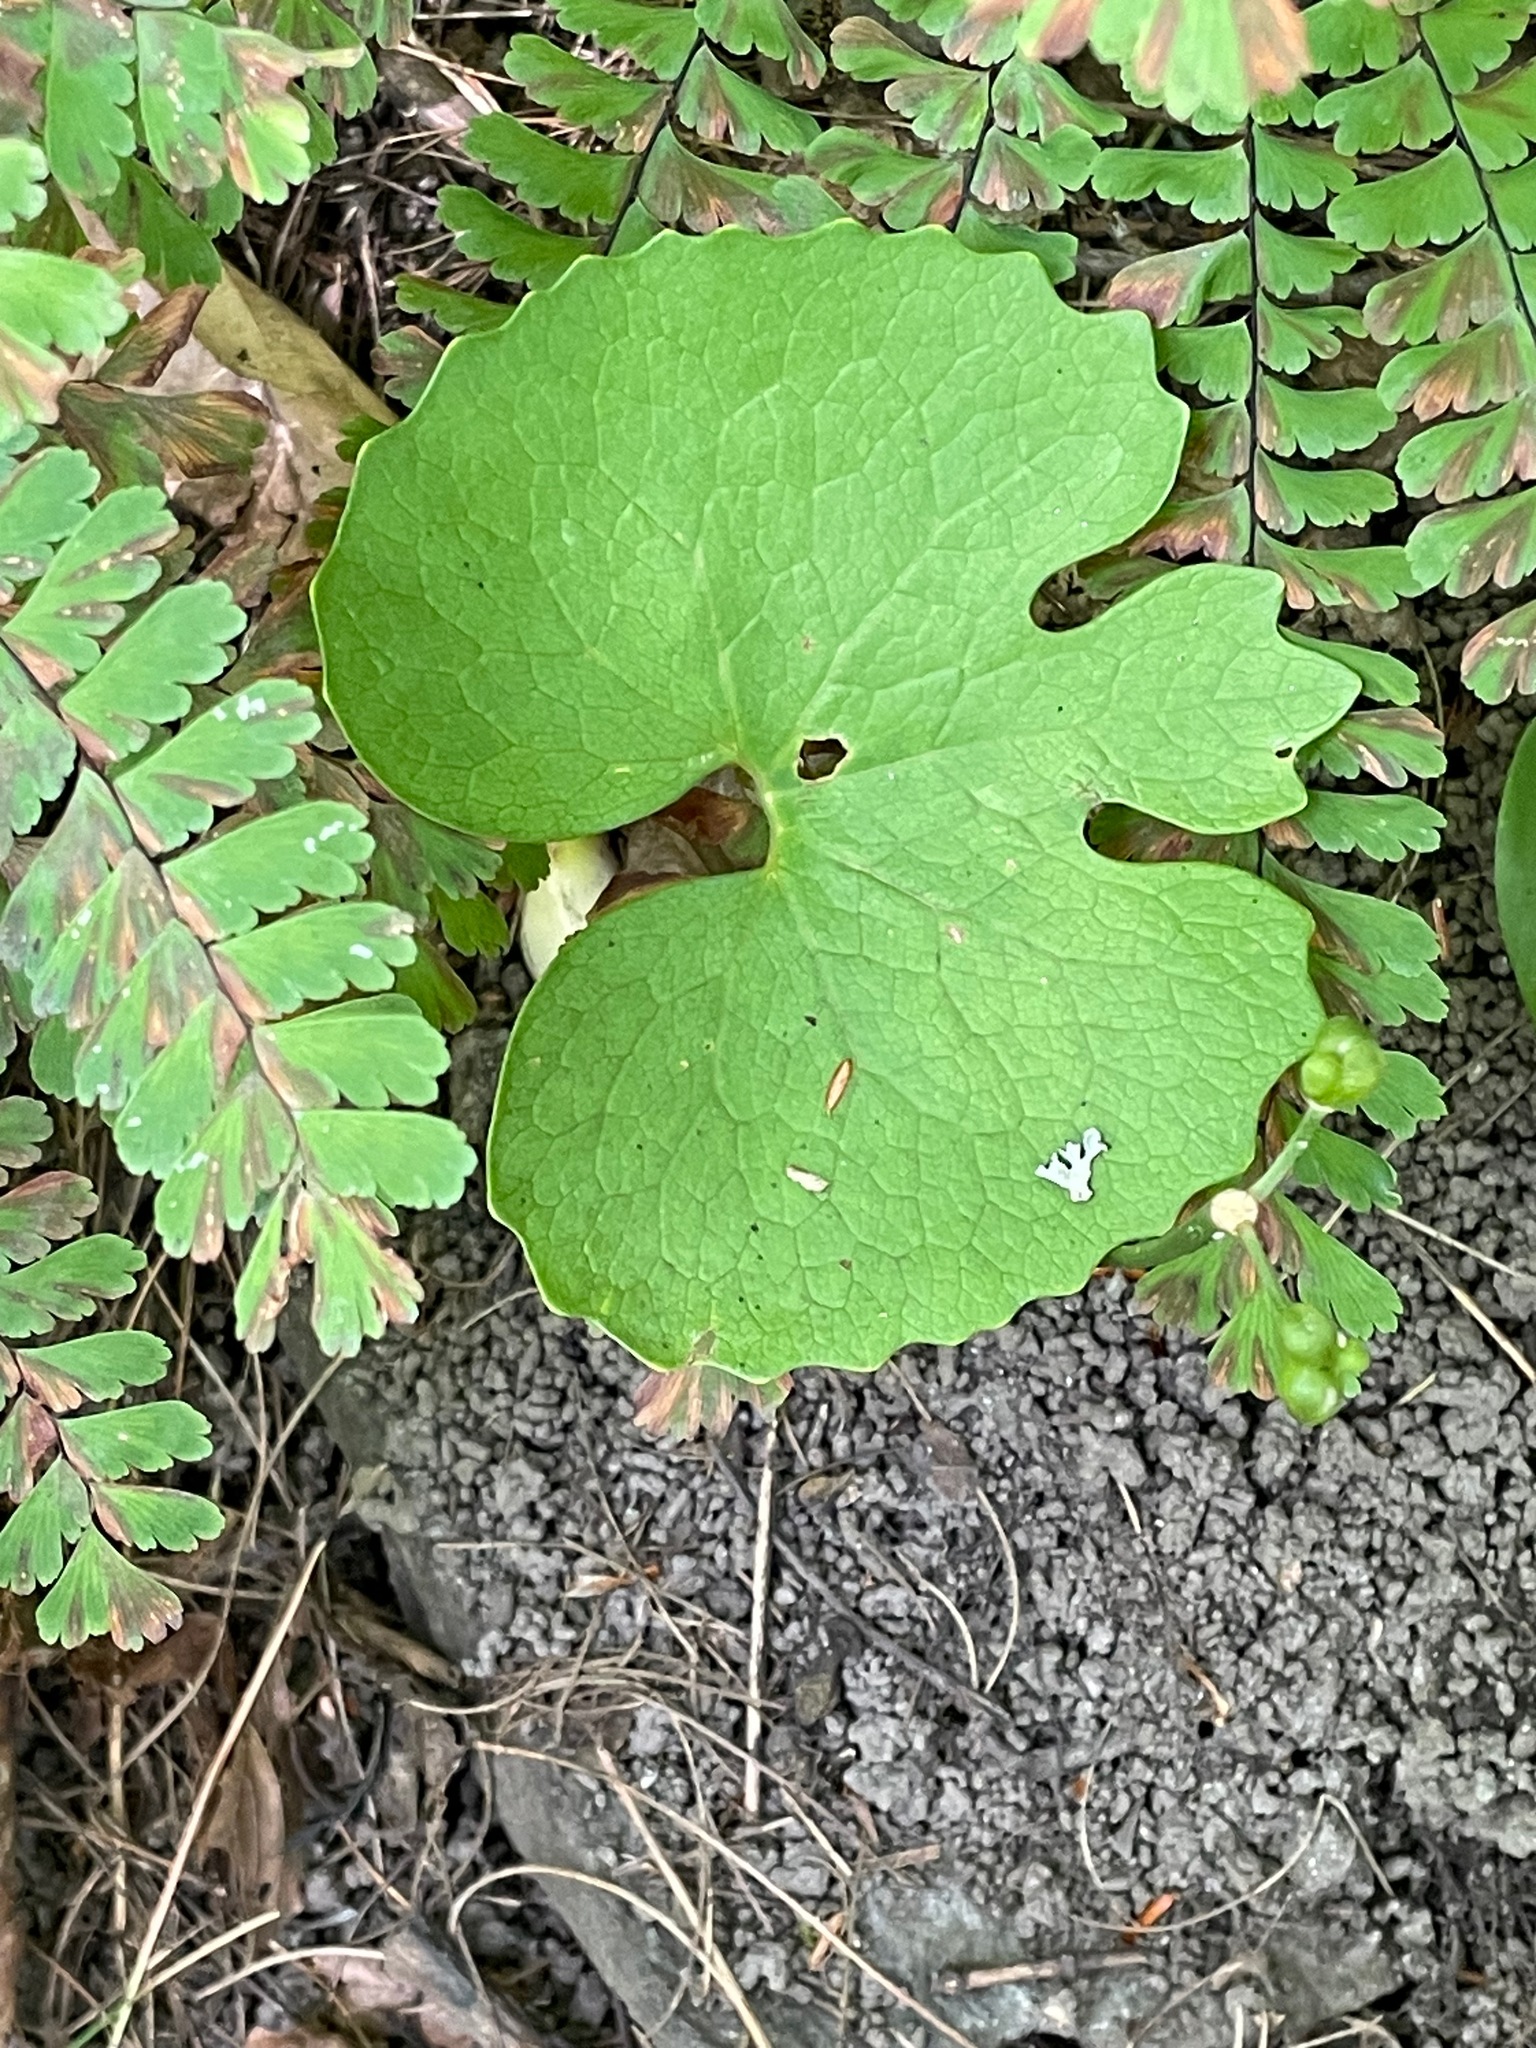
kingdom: Plantae
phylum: Tracheophyta
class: Magnoliopsida
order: Ranunculales
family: Papaveraceae
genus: Sanguinaria
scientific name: Sanguinaria canadensis
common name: Bloodroot
